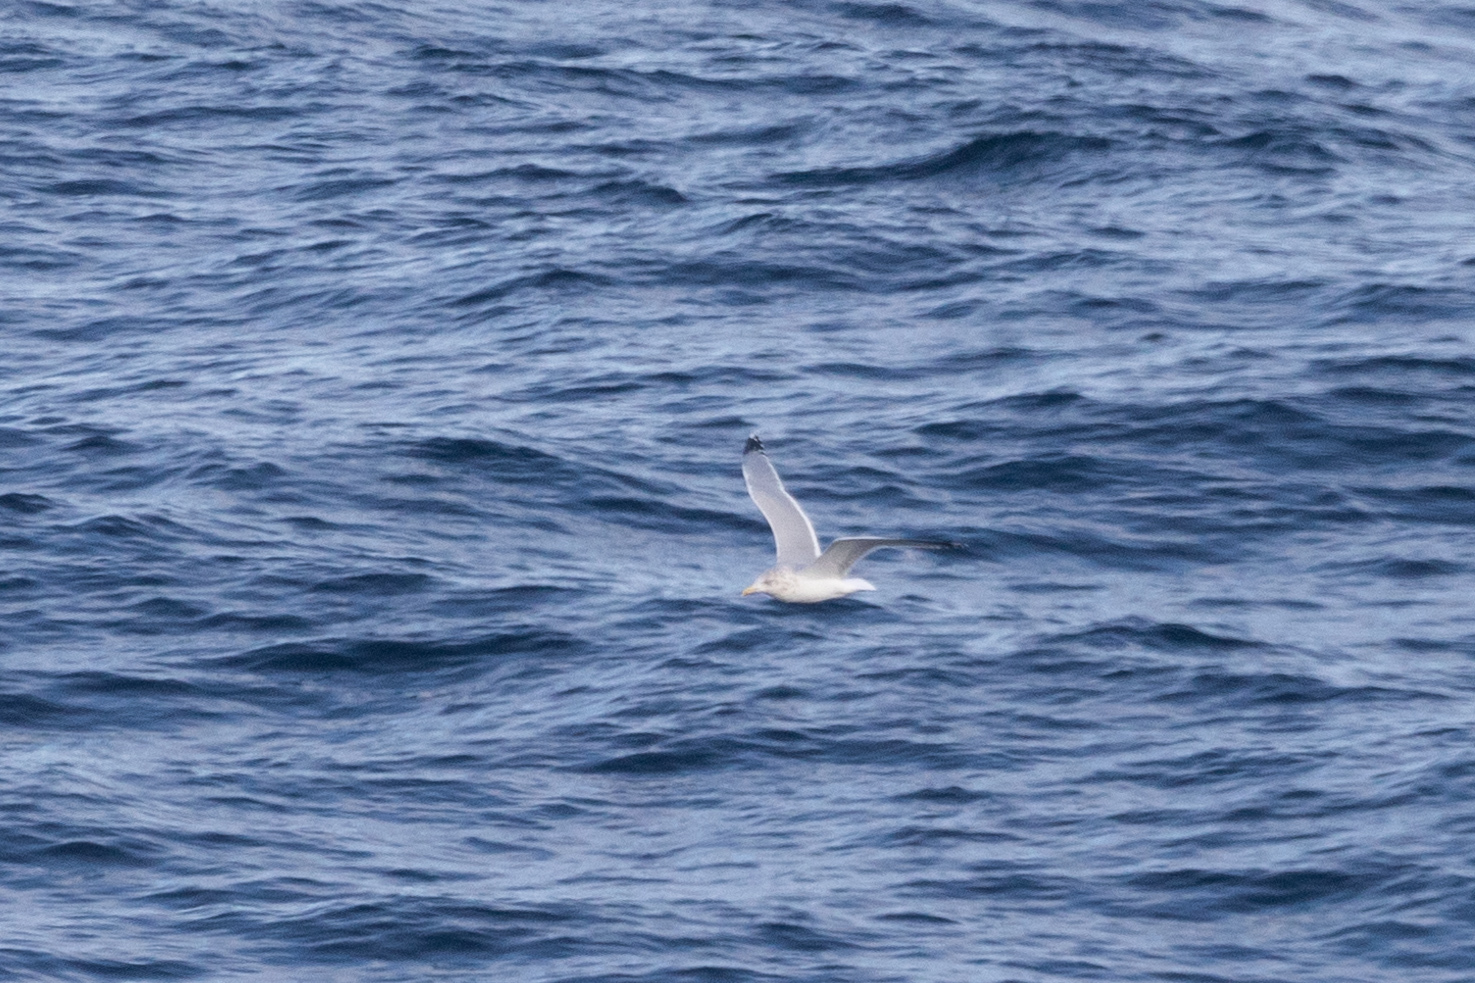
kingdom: Animalia
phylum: Chordata
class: Aves
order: Charadriiformes
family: Laridae
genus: Larus
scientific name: Larus argentatus
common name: Herring gull
